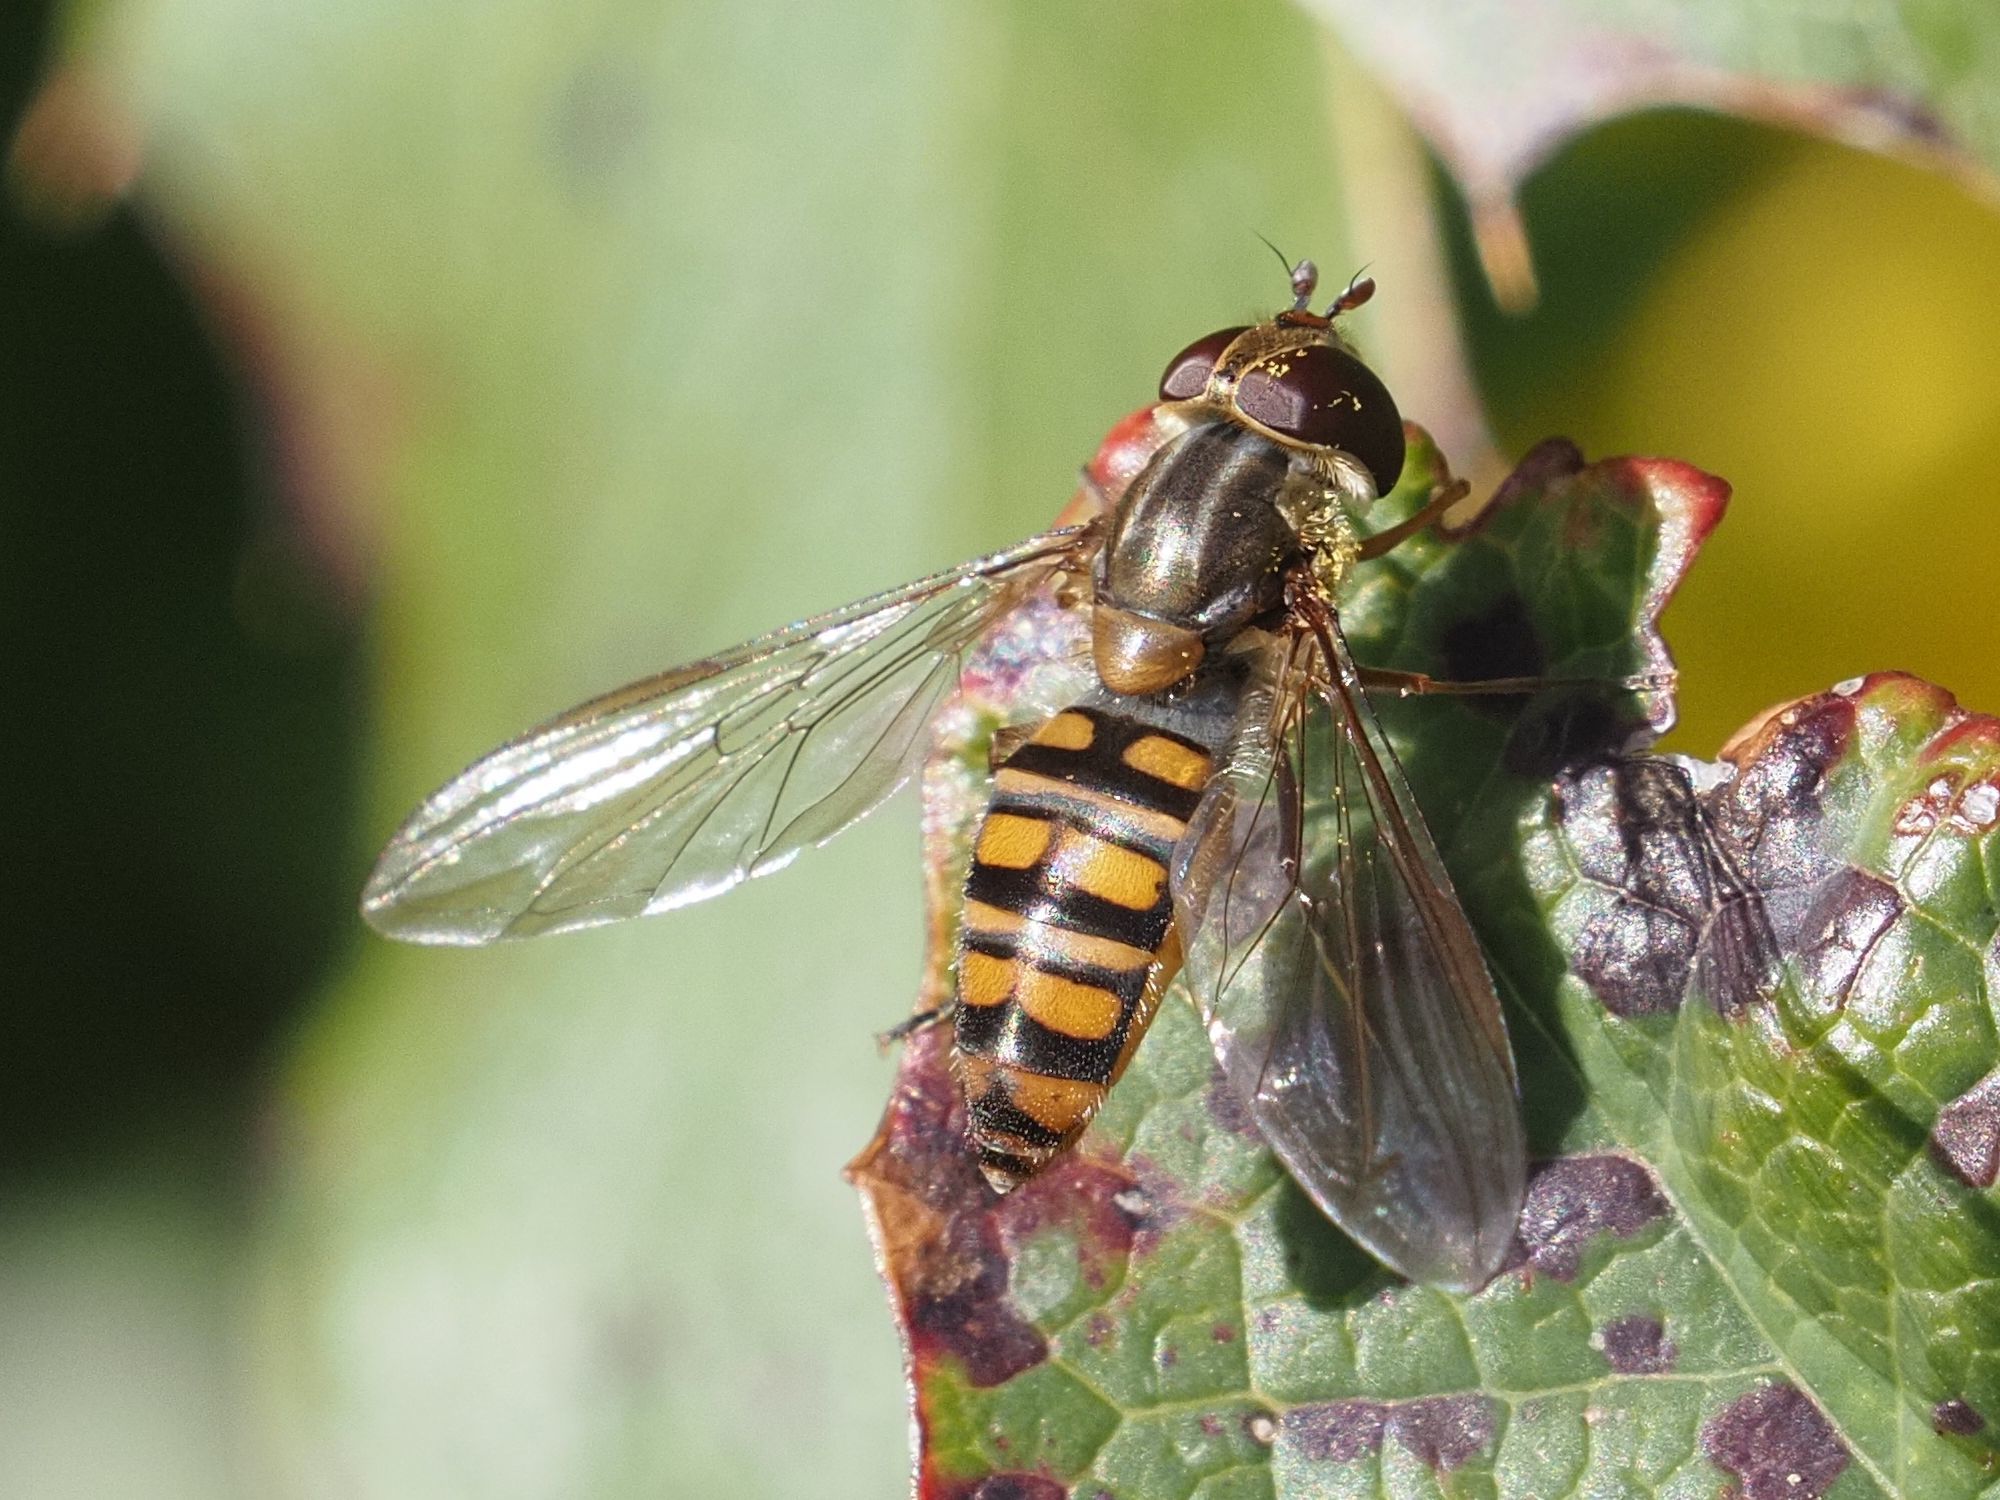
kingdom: Animalia
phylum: Arthropoda
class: Insecta
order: Diptera
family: Syrphidae
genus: Episyrphus
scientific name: Episyrphus balteatus
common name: Marmalade hoverfly
